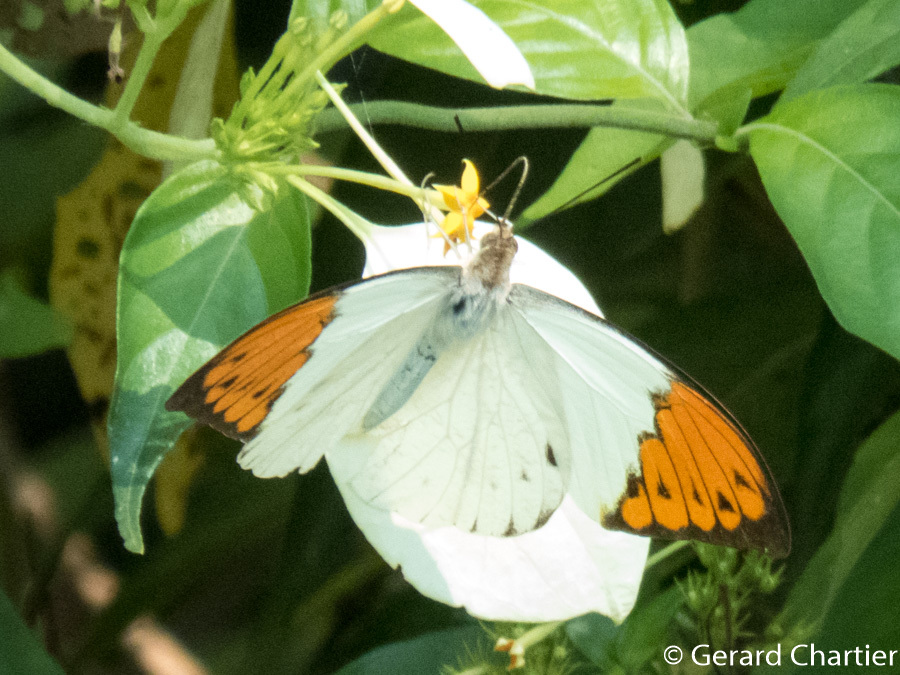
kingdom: Animalia
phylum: Arthropoda
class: Insecta
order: Lepidoptera
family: Pieridae
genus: Hebomoia
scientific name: Hebomoia glaucippe
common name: Great orange tip
